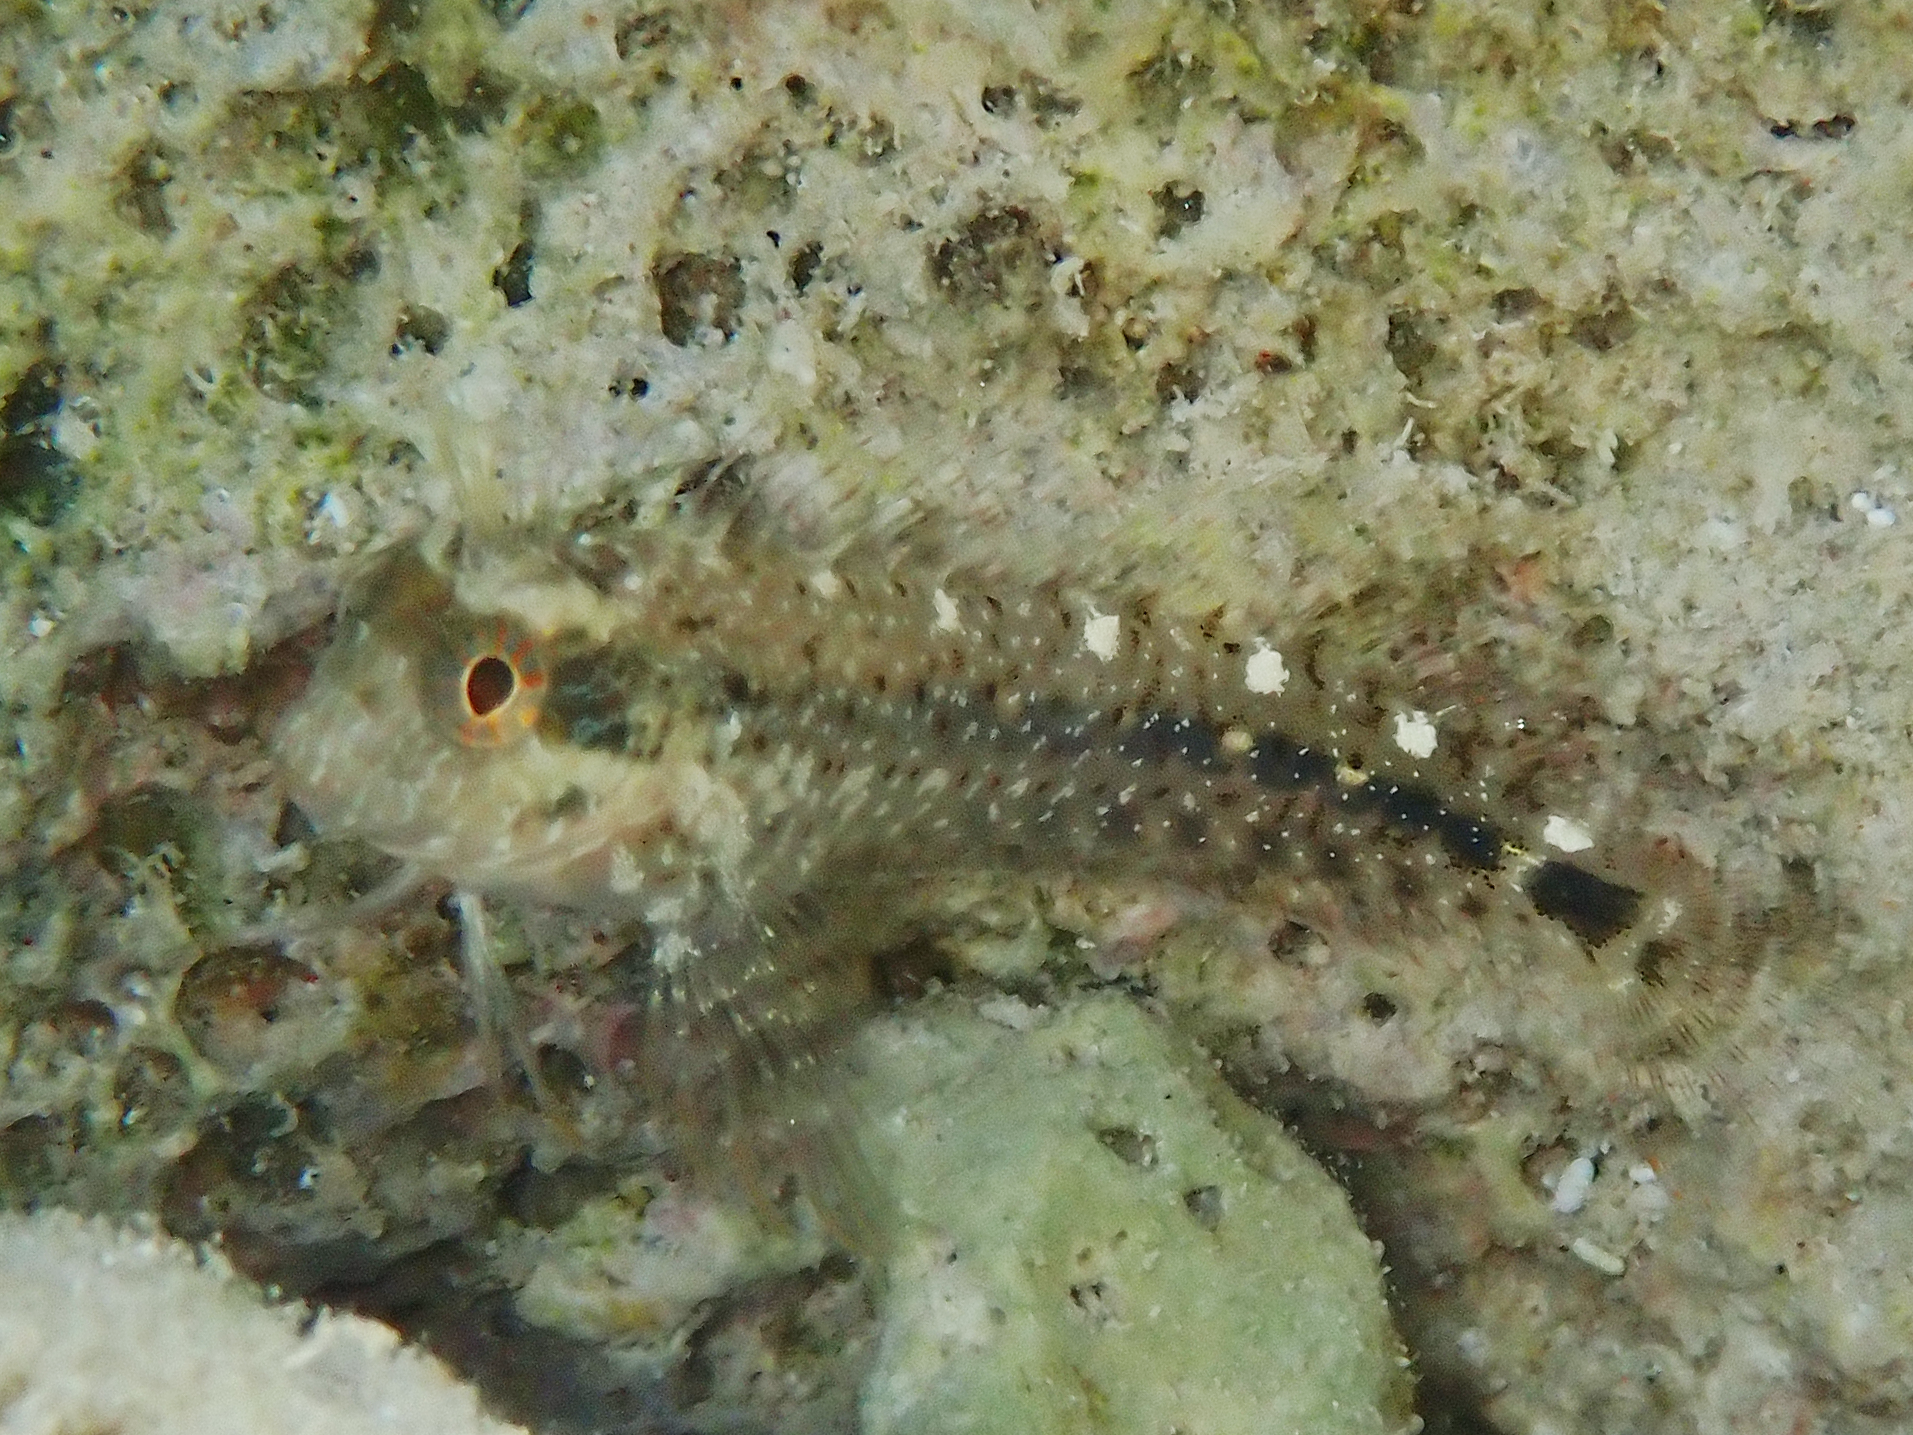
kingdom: Animalia
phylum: Chordata
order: Perciformes
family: Blenniidae
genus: Parablennius
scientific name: Parablennius zvonimiri
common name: Red blenny
